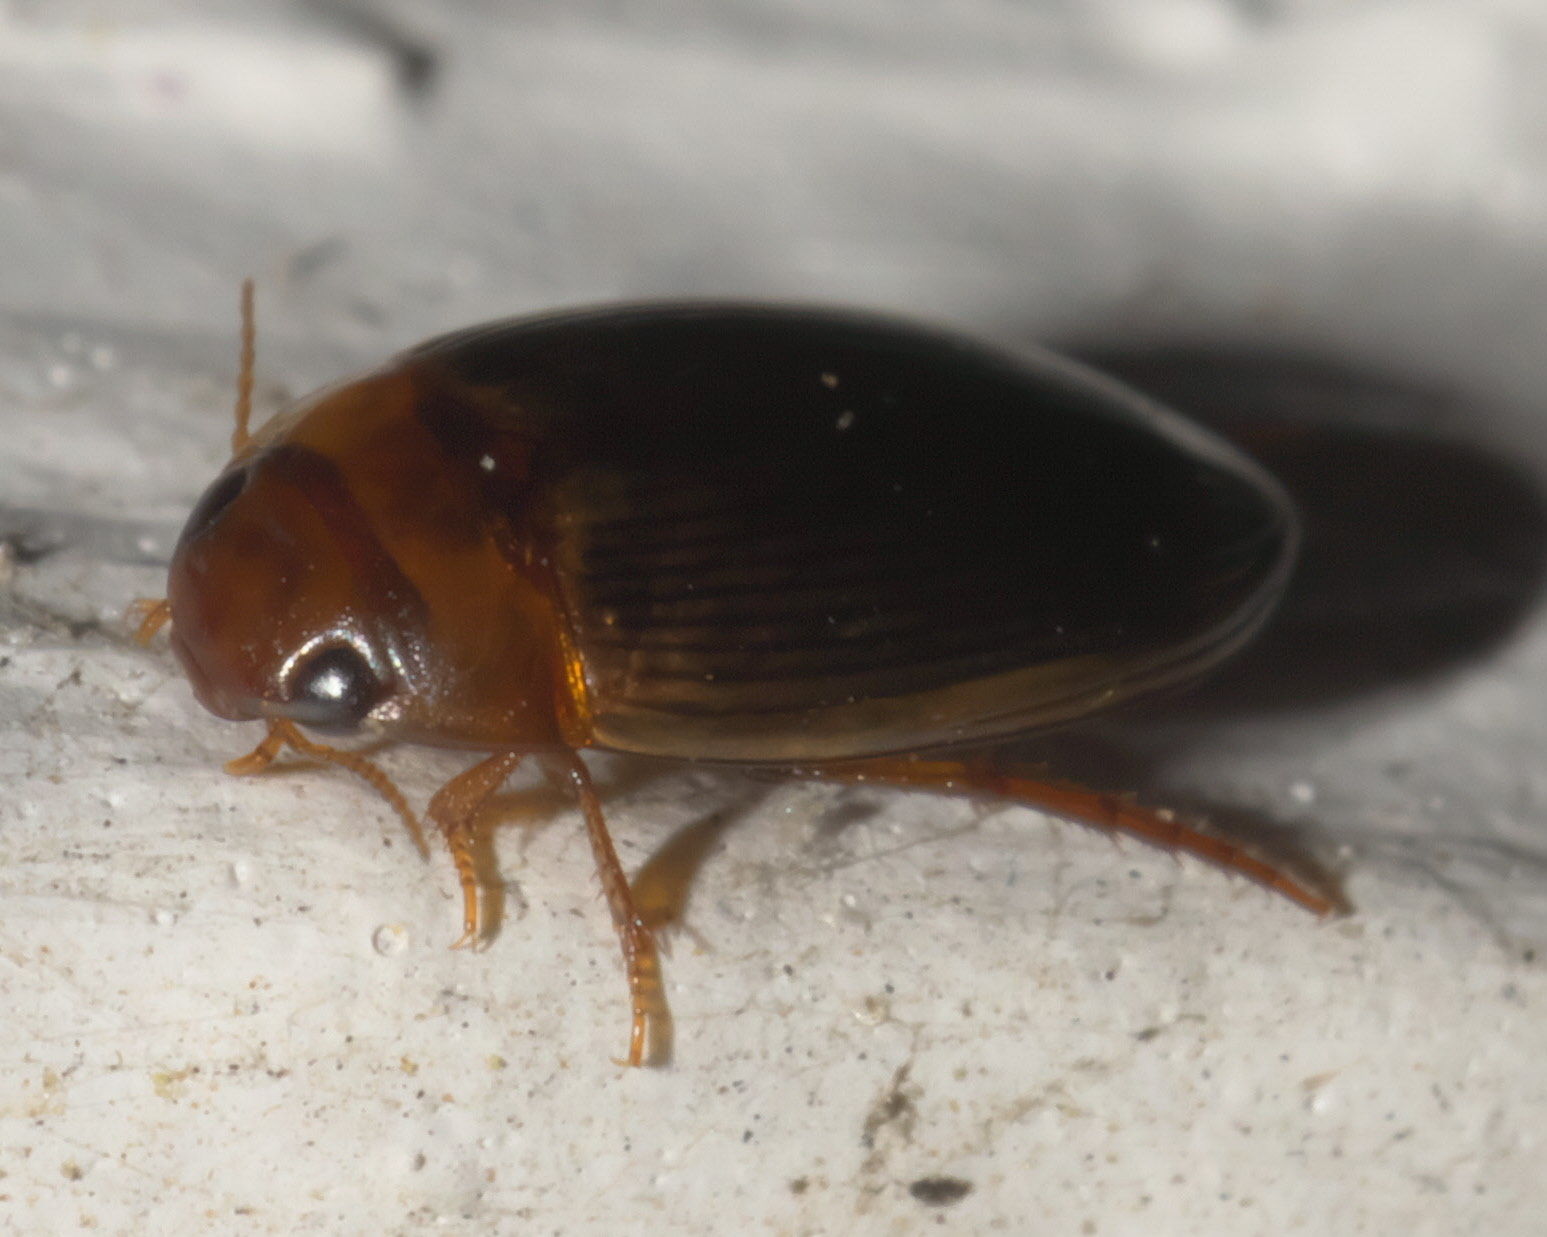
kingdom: Animalia
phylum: Arthropoda
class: Insecta
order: Coleoptera
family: Dytiscidae
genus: Copelatus
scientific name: Copelatus glyphicus
